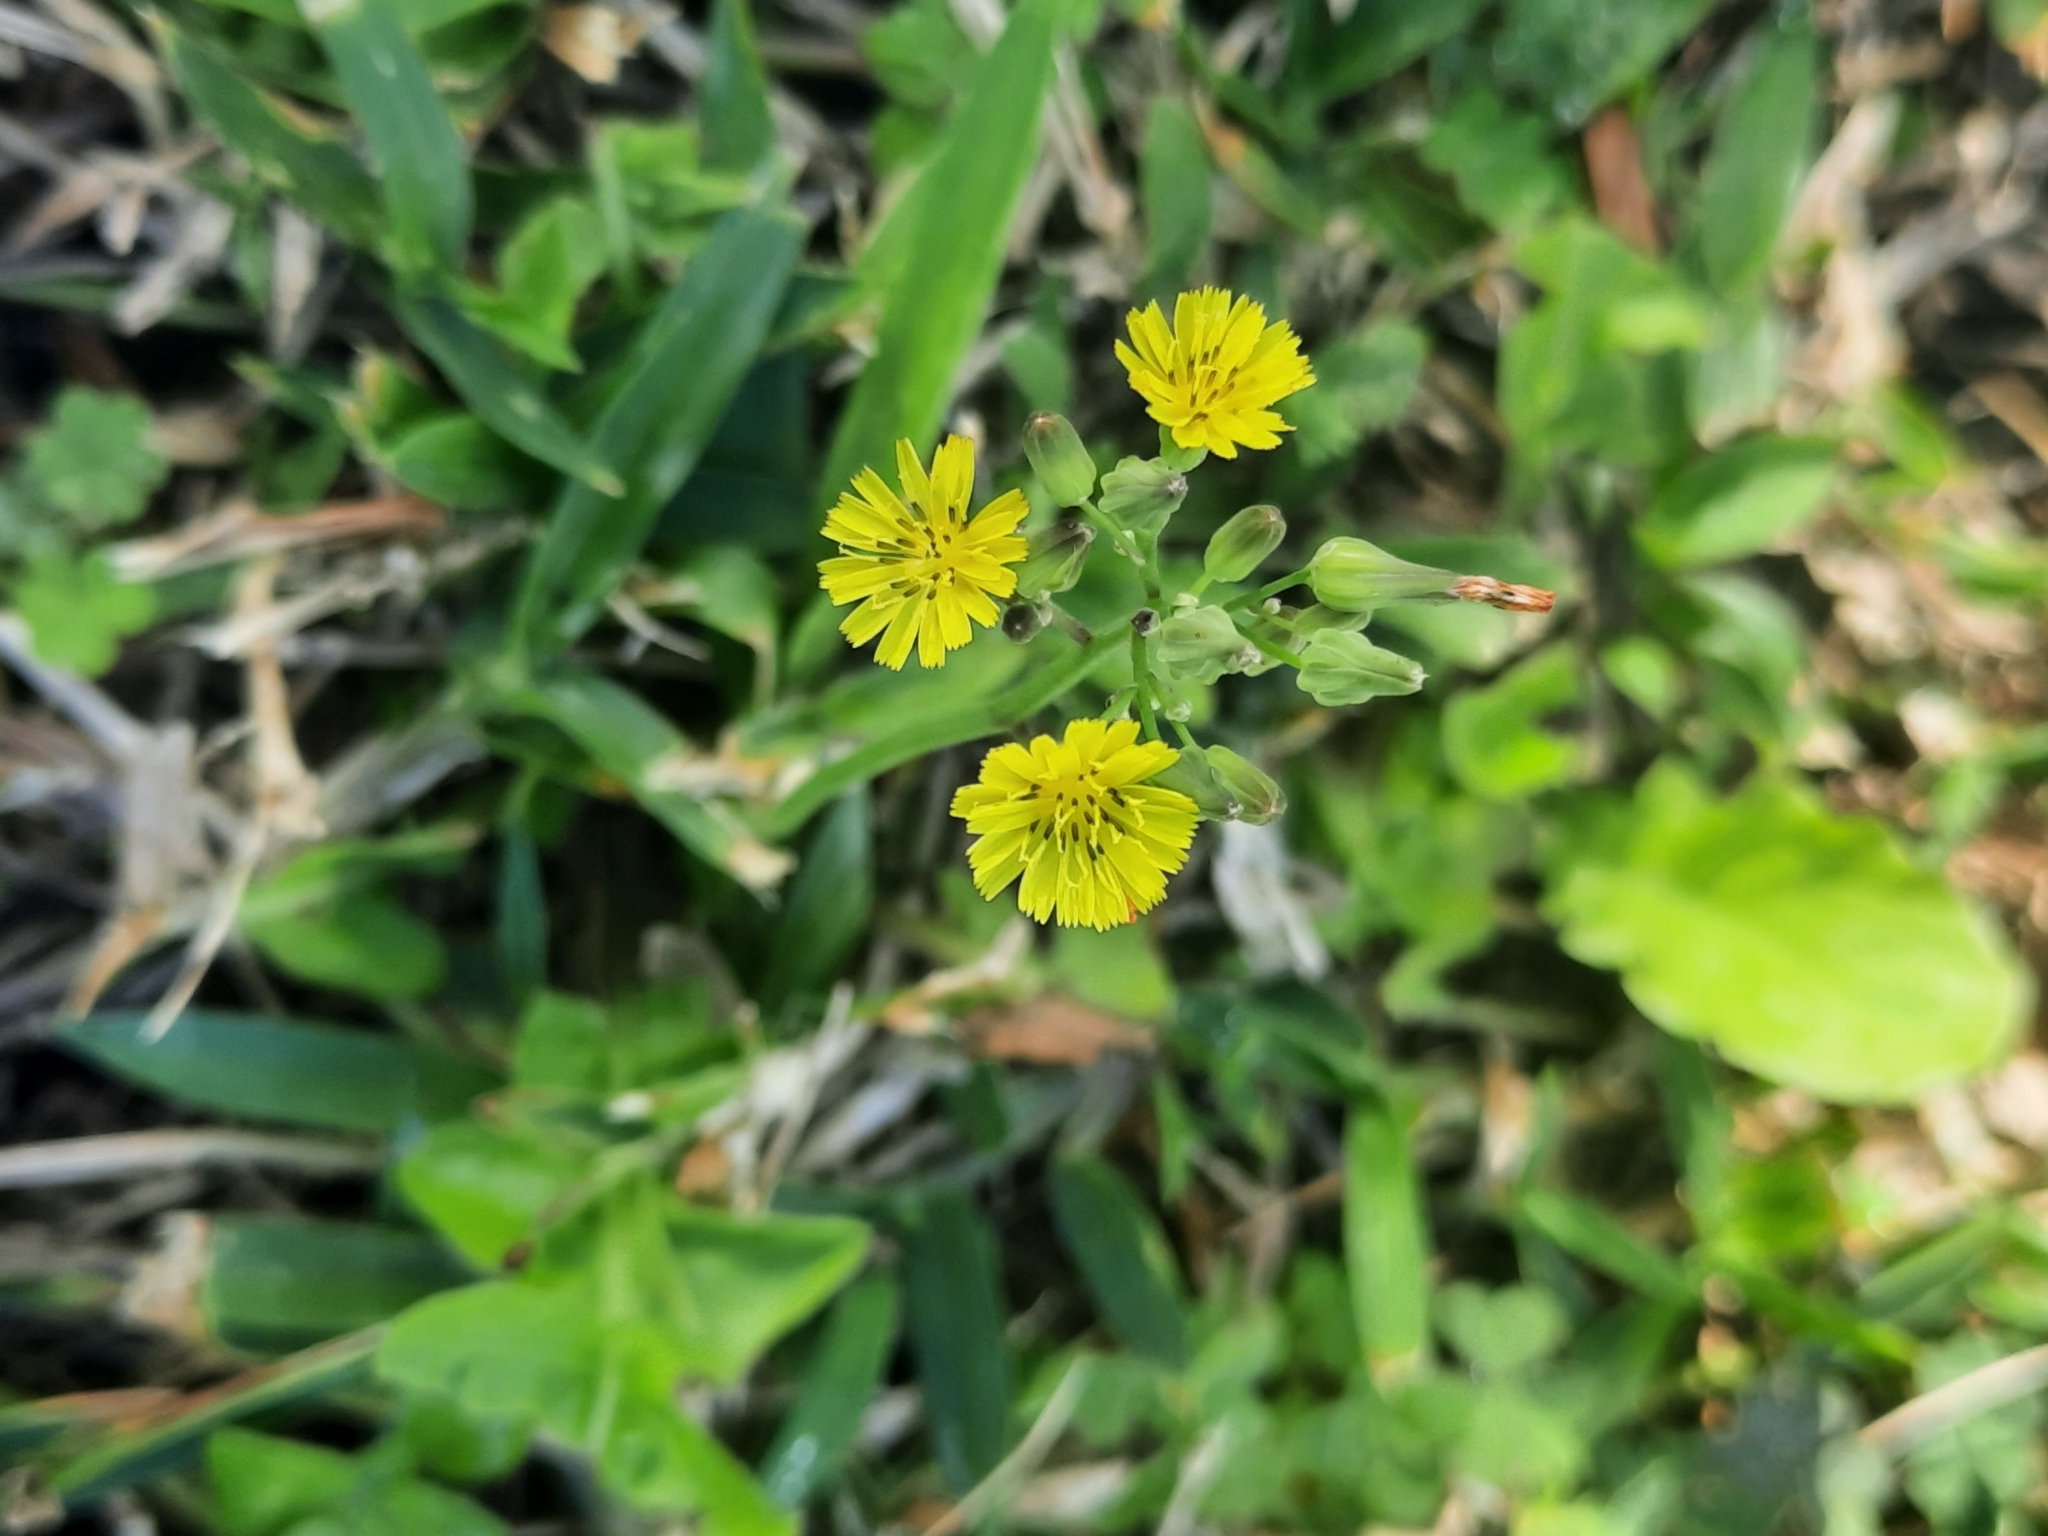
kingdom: Plantae
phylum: Tracheophyta
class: Magnoliopsida
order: Asterales
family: Asteraceae
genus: Youngia
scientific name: Youngia japonica
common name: Oriental false hawksbeard
